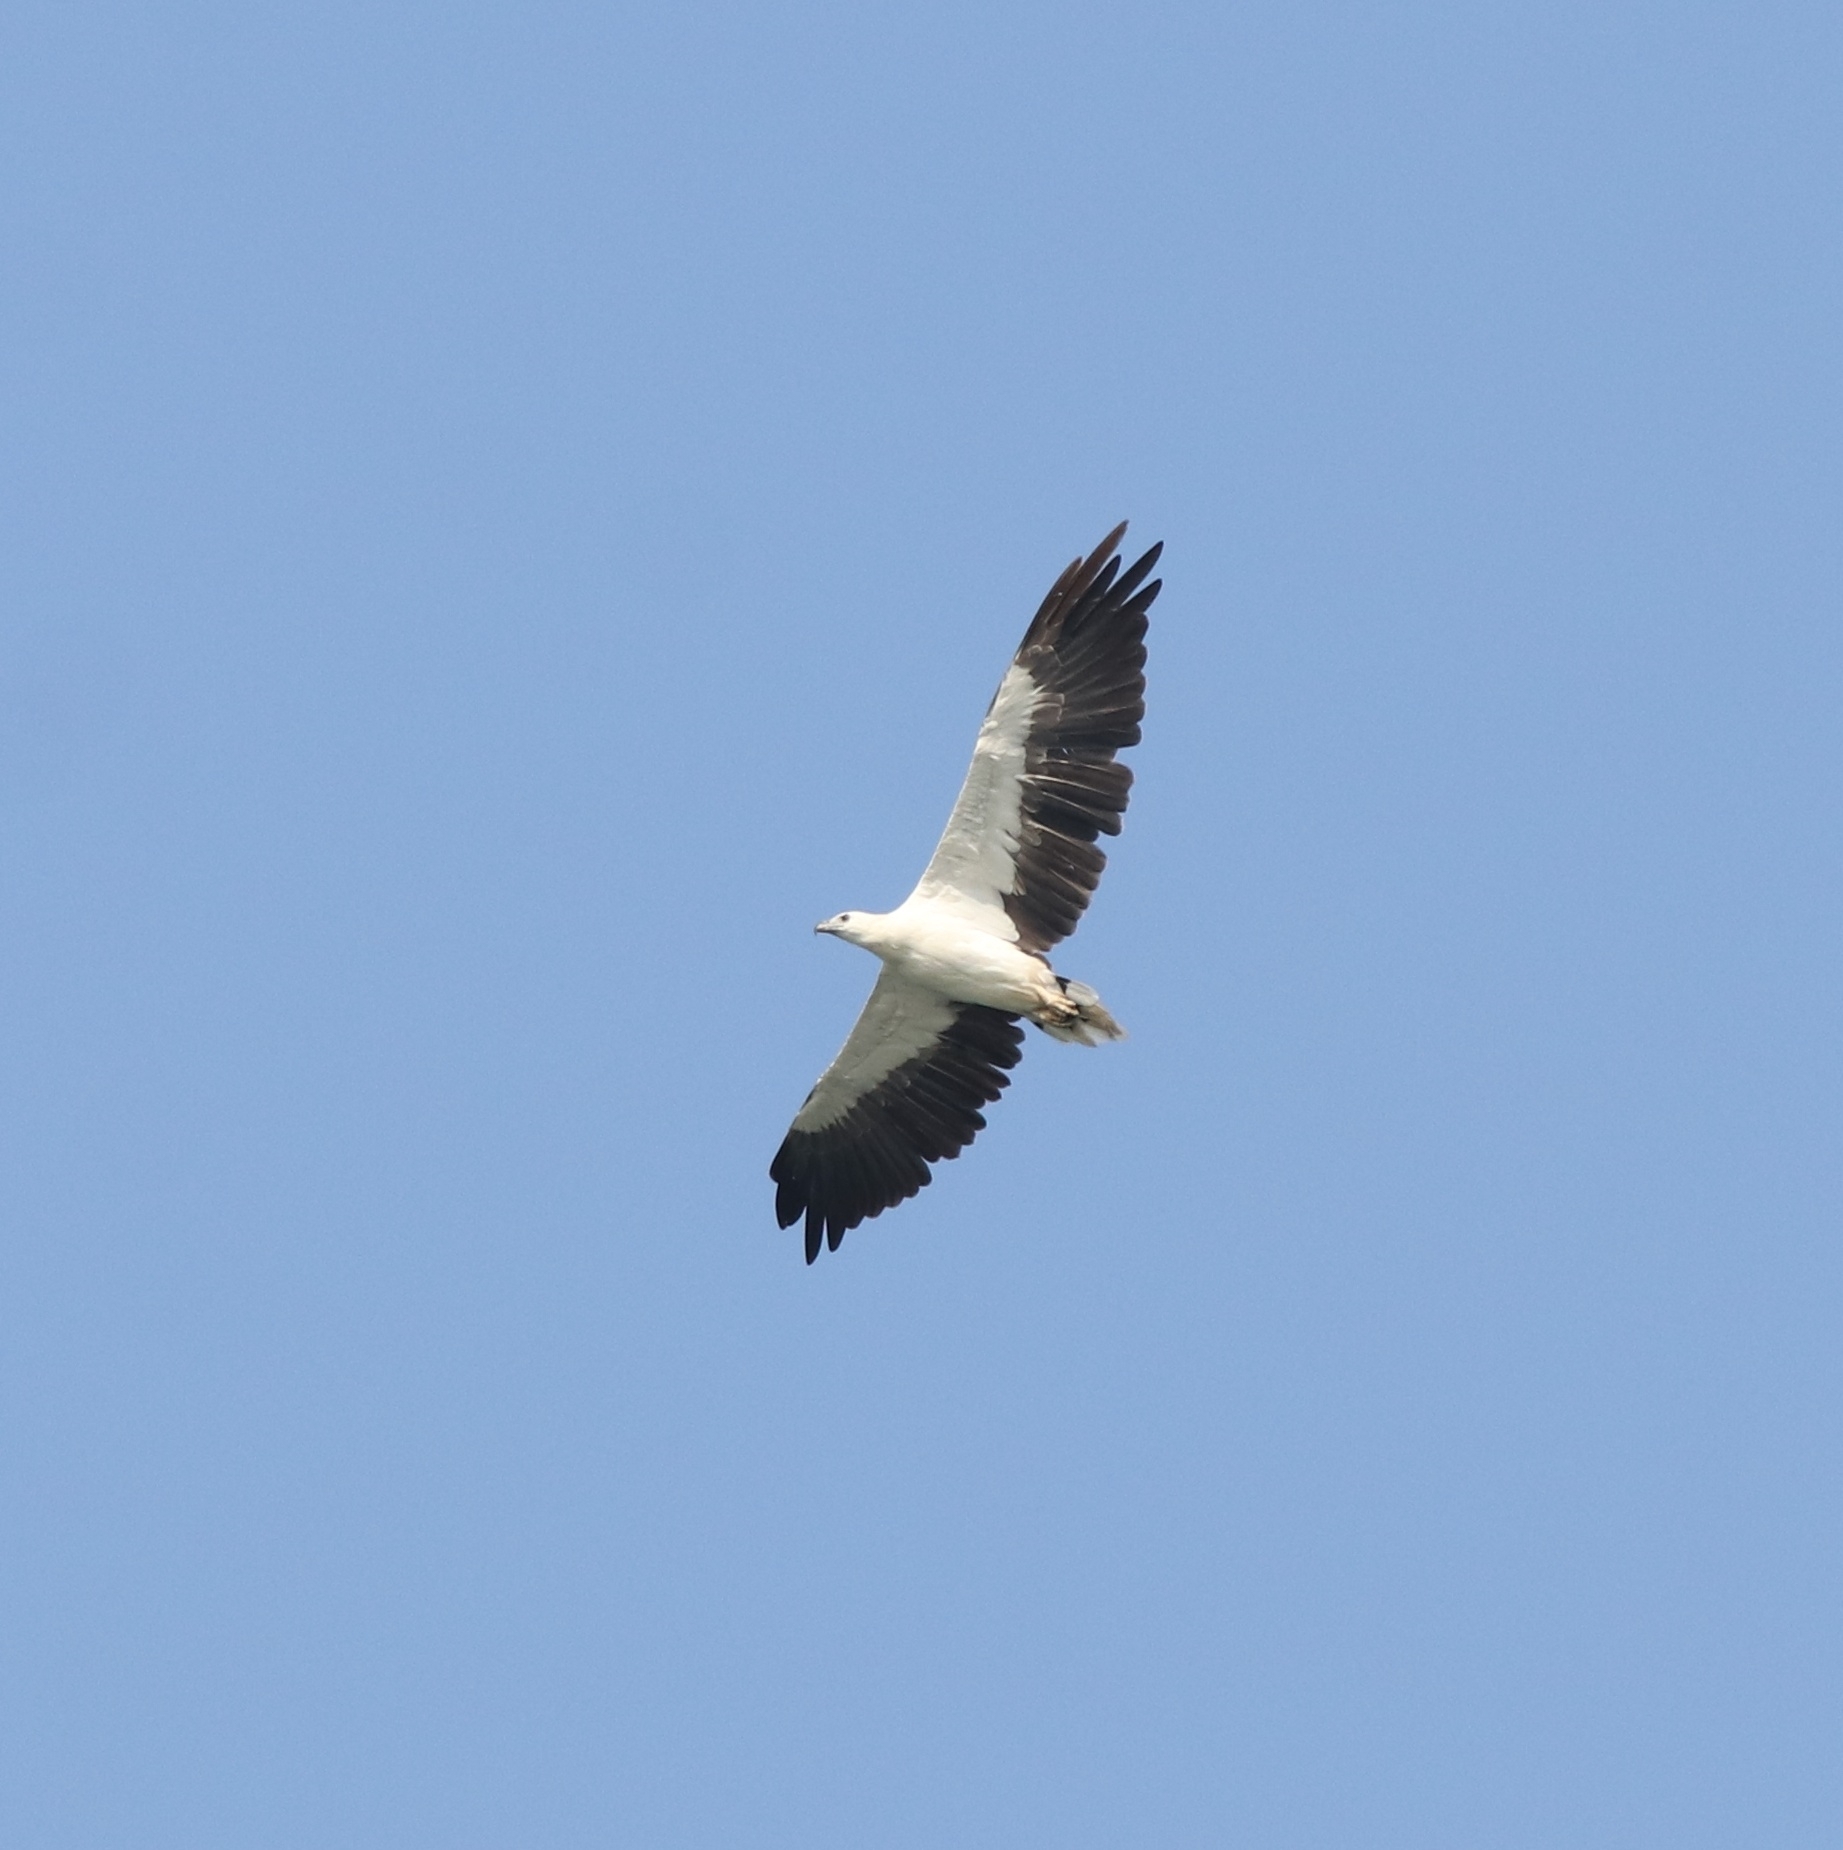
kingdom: Animalia
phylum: Chordata
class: Aves
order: Accipitriformes
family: Accipitridae
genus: Haliaeetus
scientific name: Haliaeetus leucogaster
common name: White-bellied sea eagle
